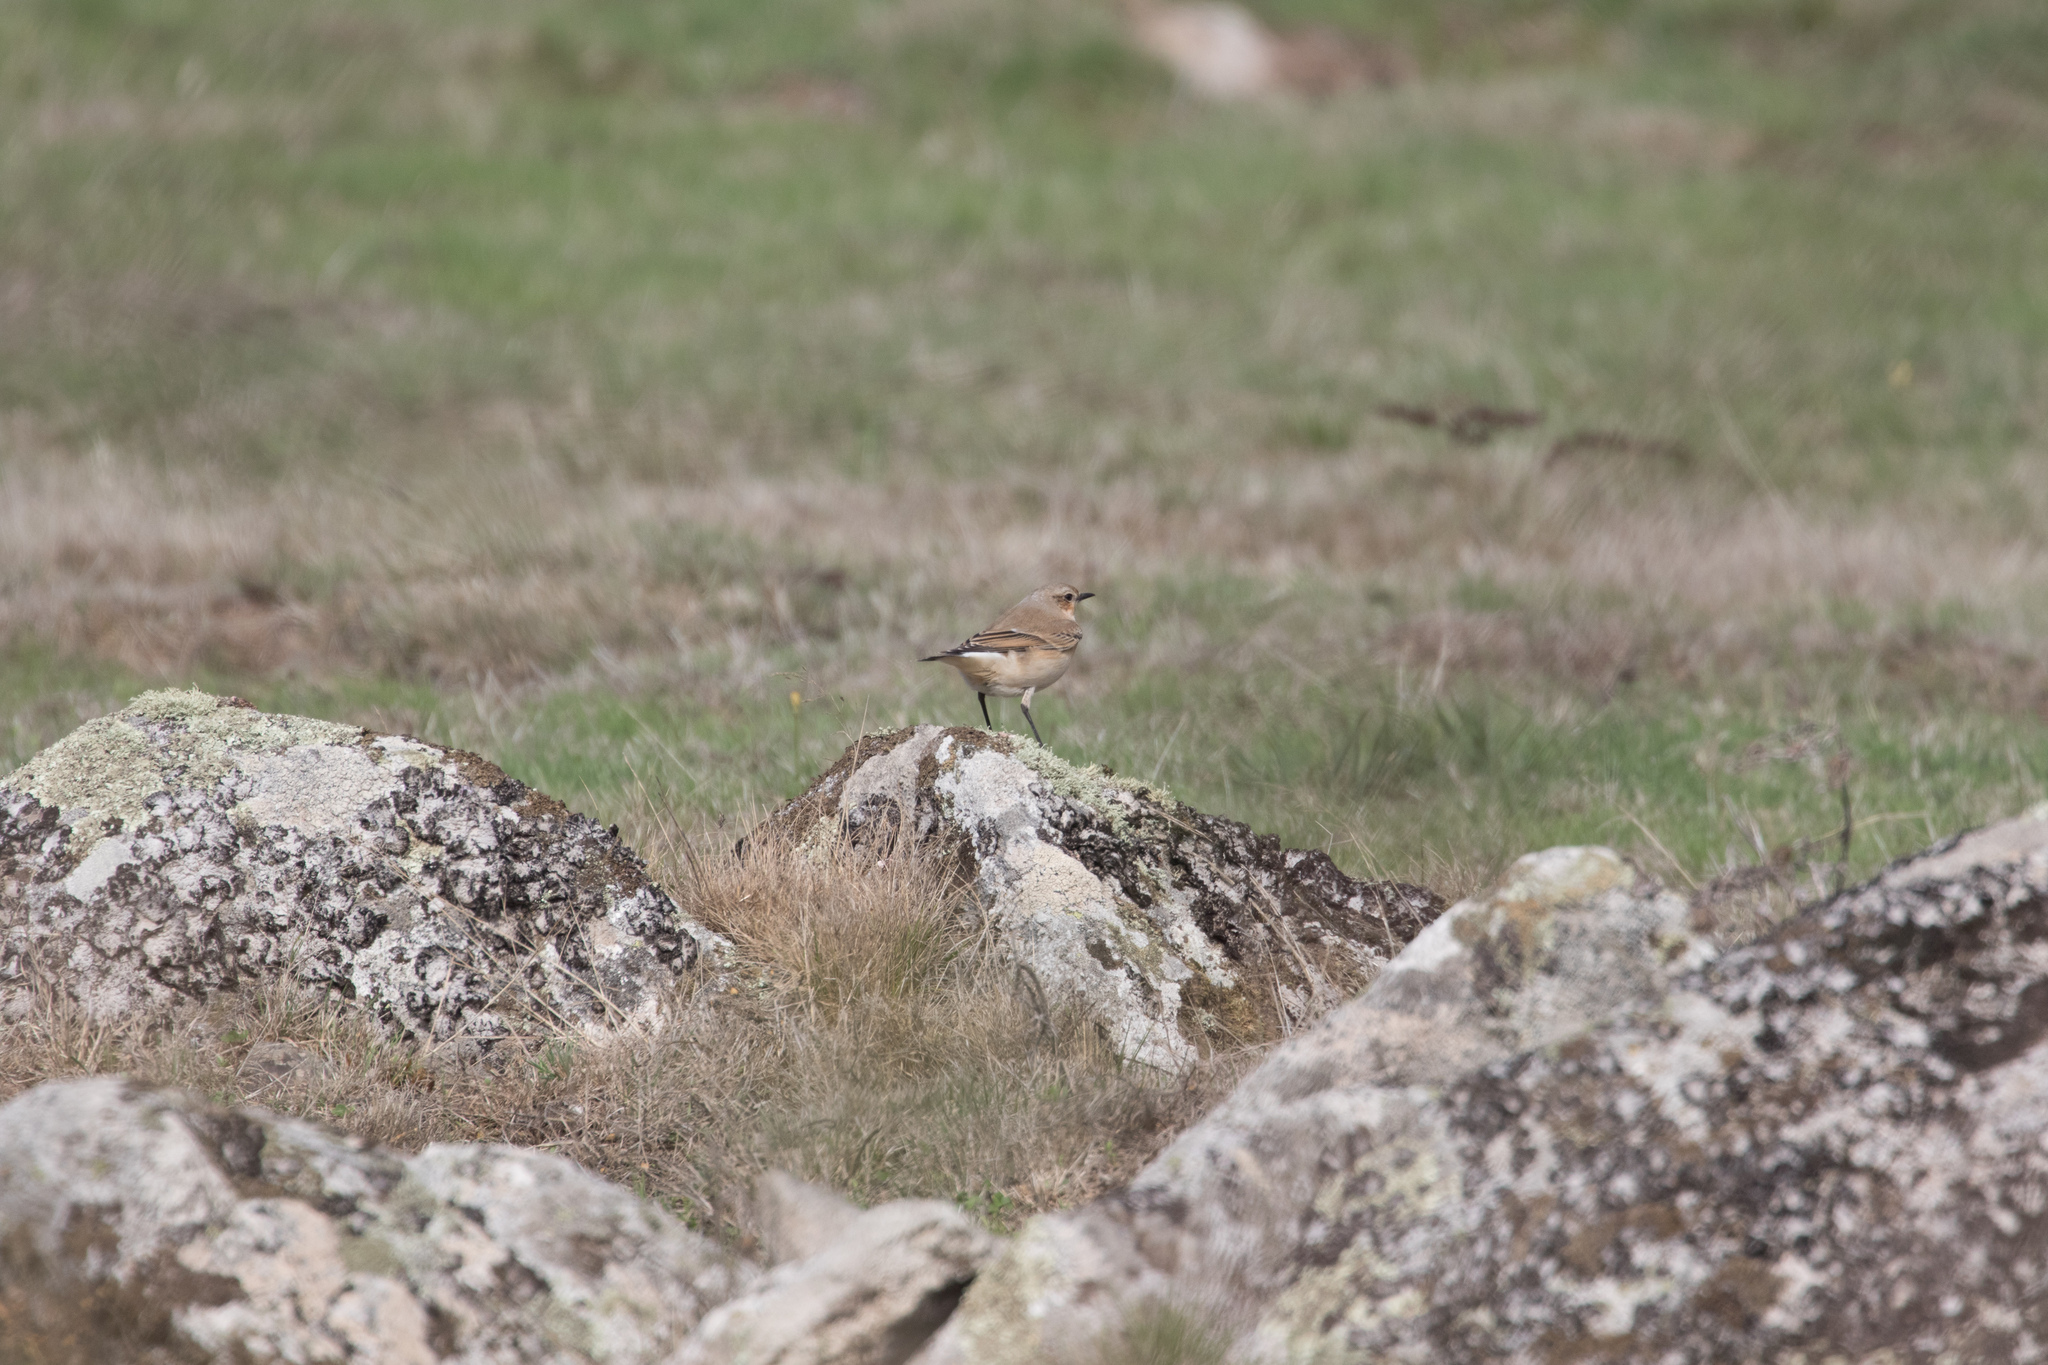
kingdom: Animalia
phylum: Chordata
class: Aves
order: Passeriformes
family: Muscicapidae
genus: Oenanthe
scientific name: Oenanthe oenanthe
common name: Northern wheatear
